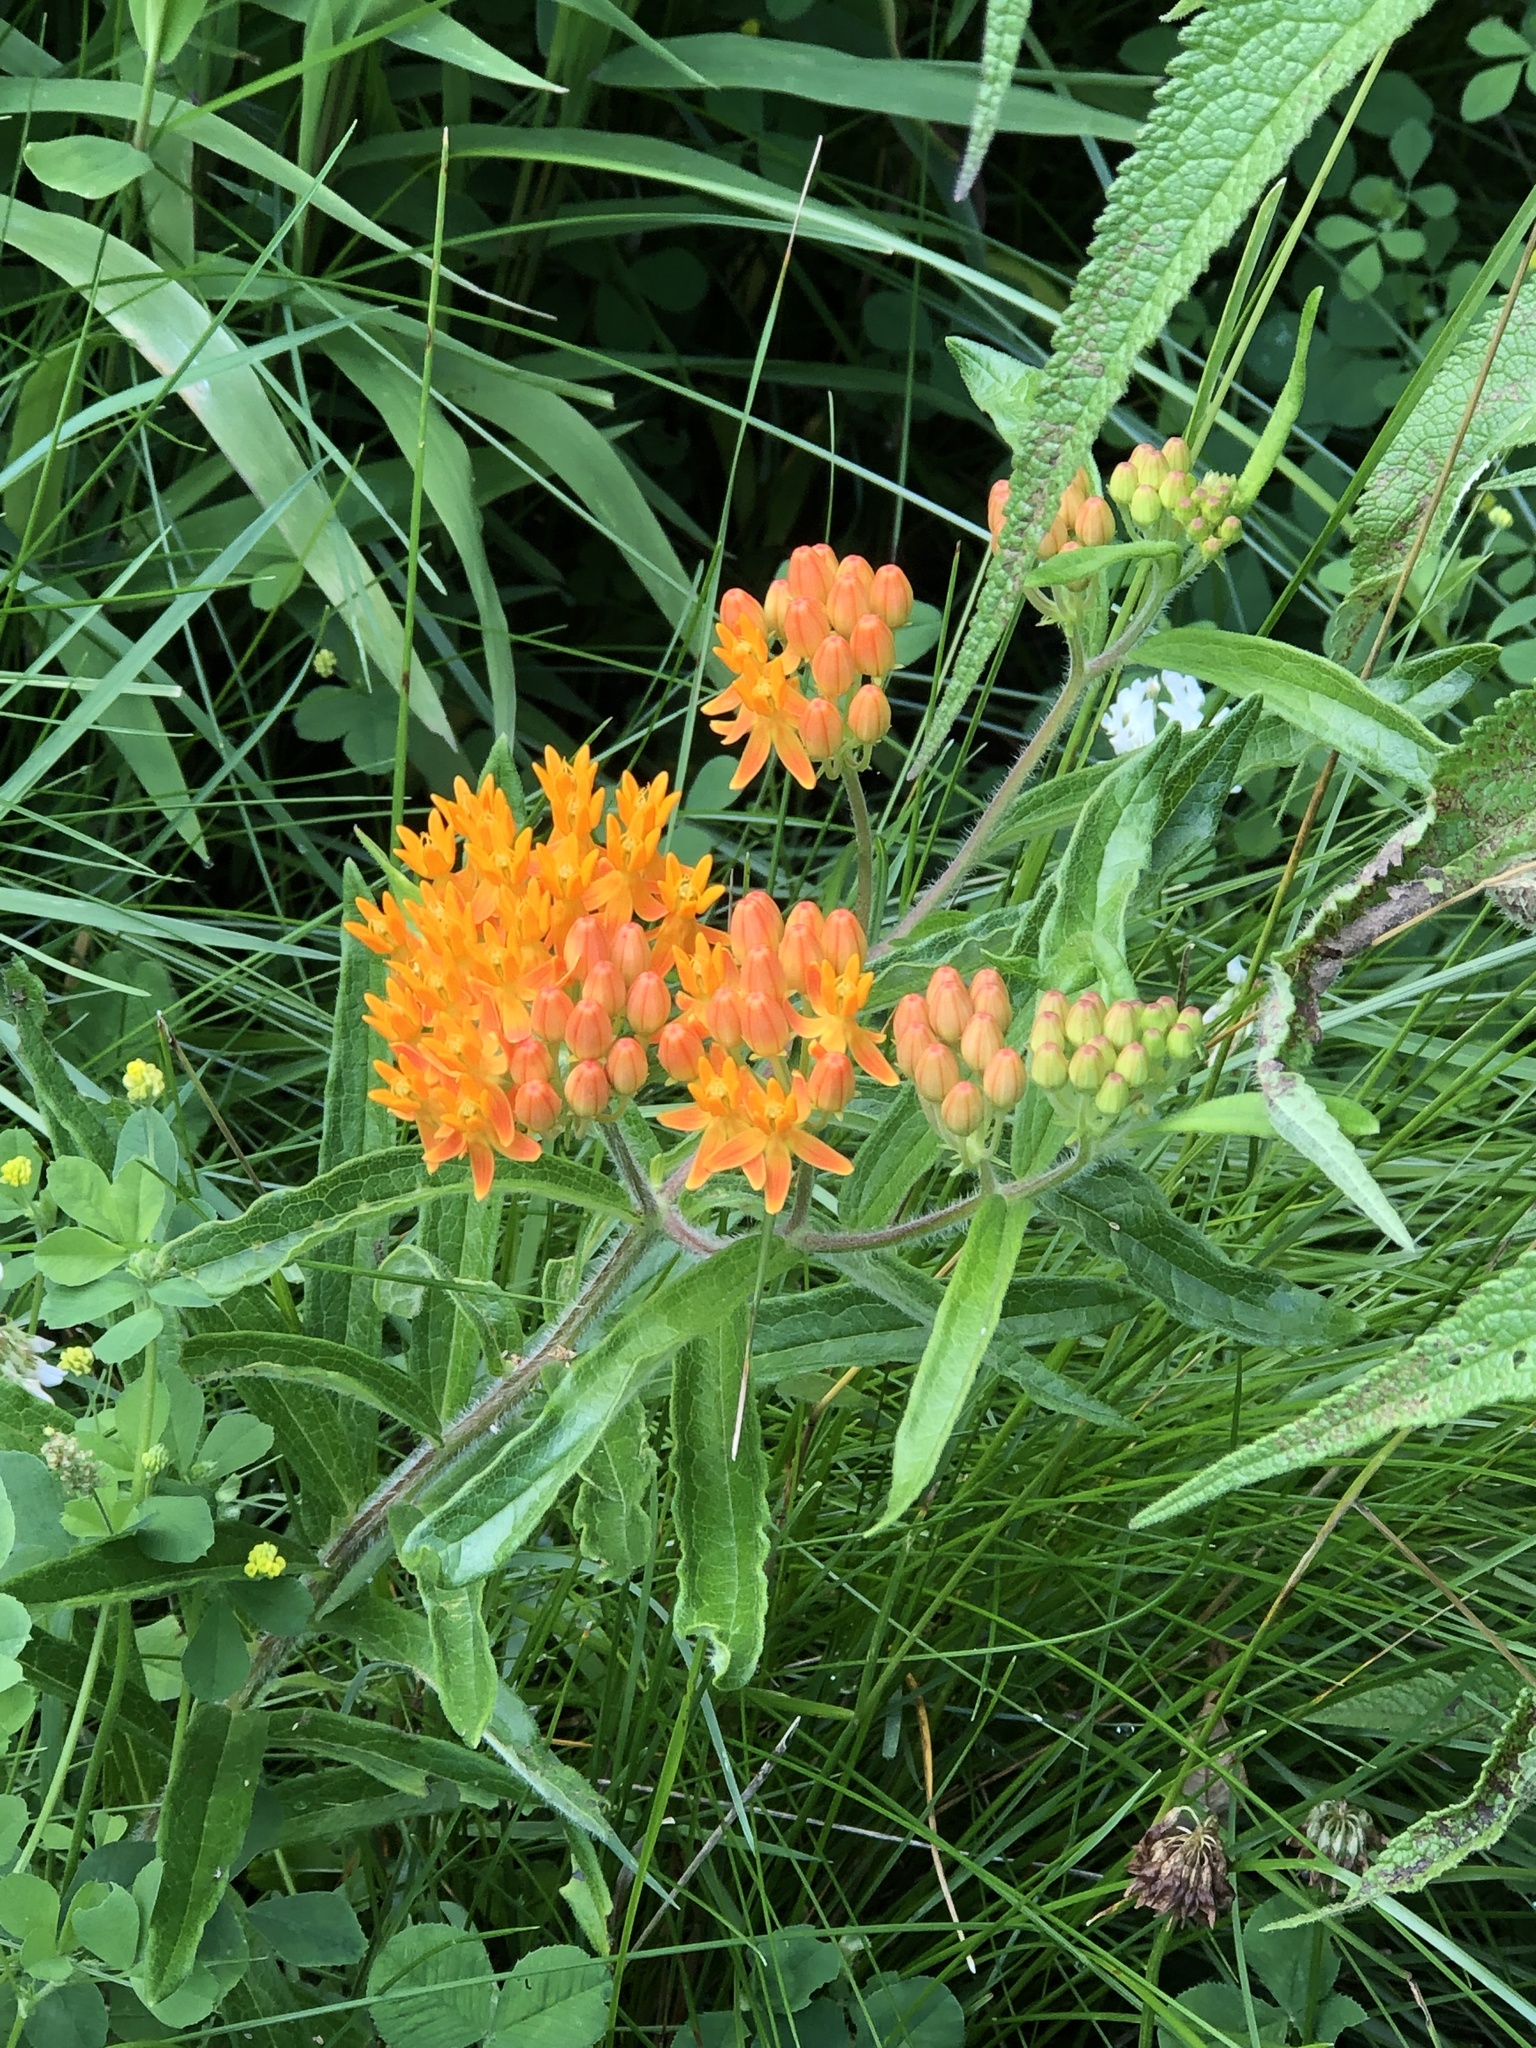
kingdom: Plantae
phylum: Tracheophyta
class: Magnoliopsida
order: Gentianales
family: Apocynaceae
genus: Asclepias
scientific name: Asclepias tuberosa
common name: Butterfly milkweed
